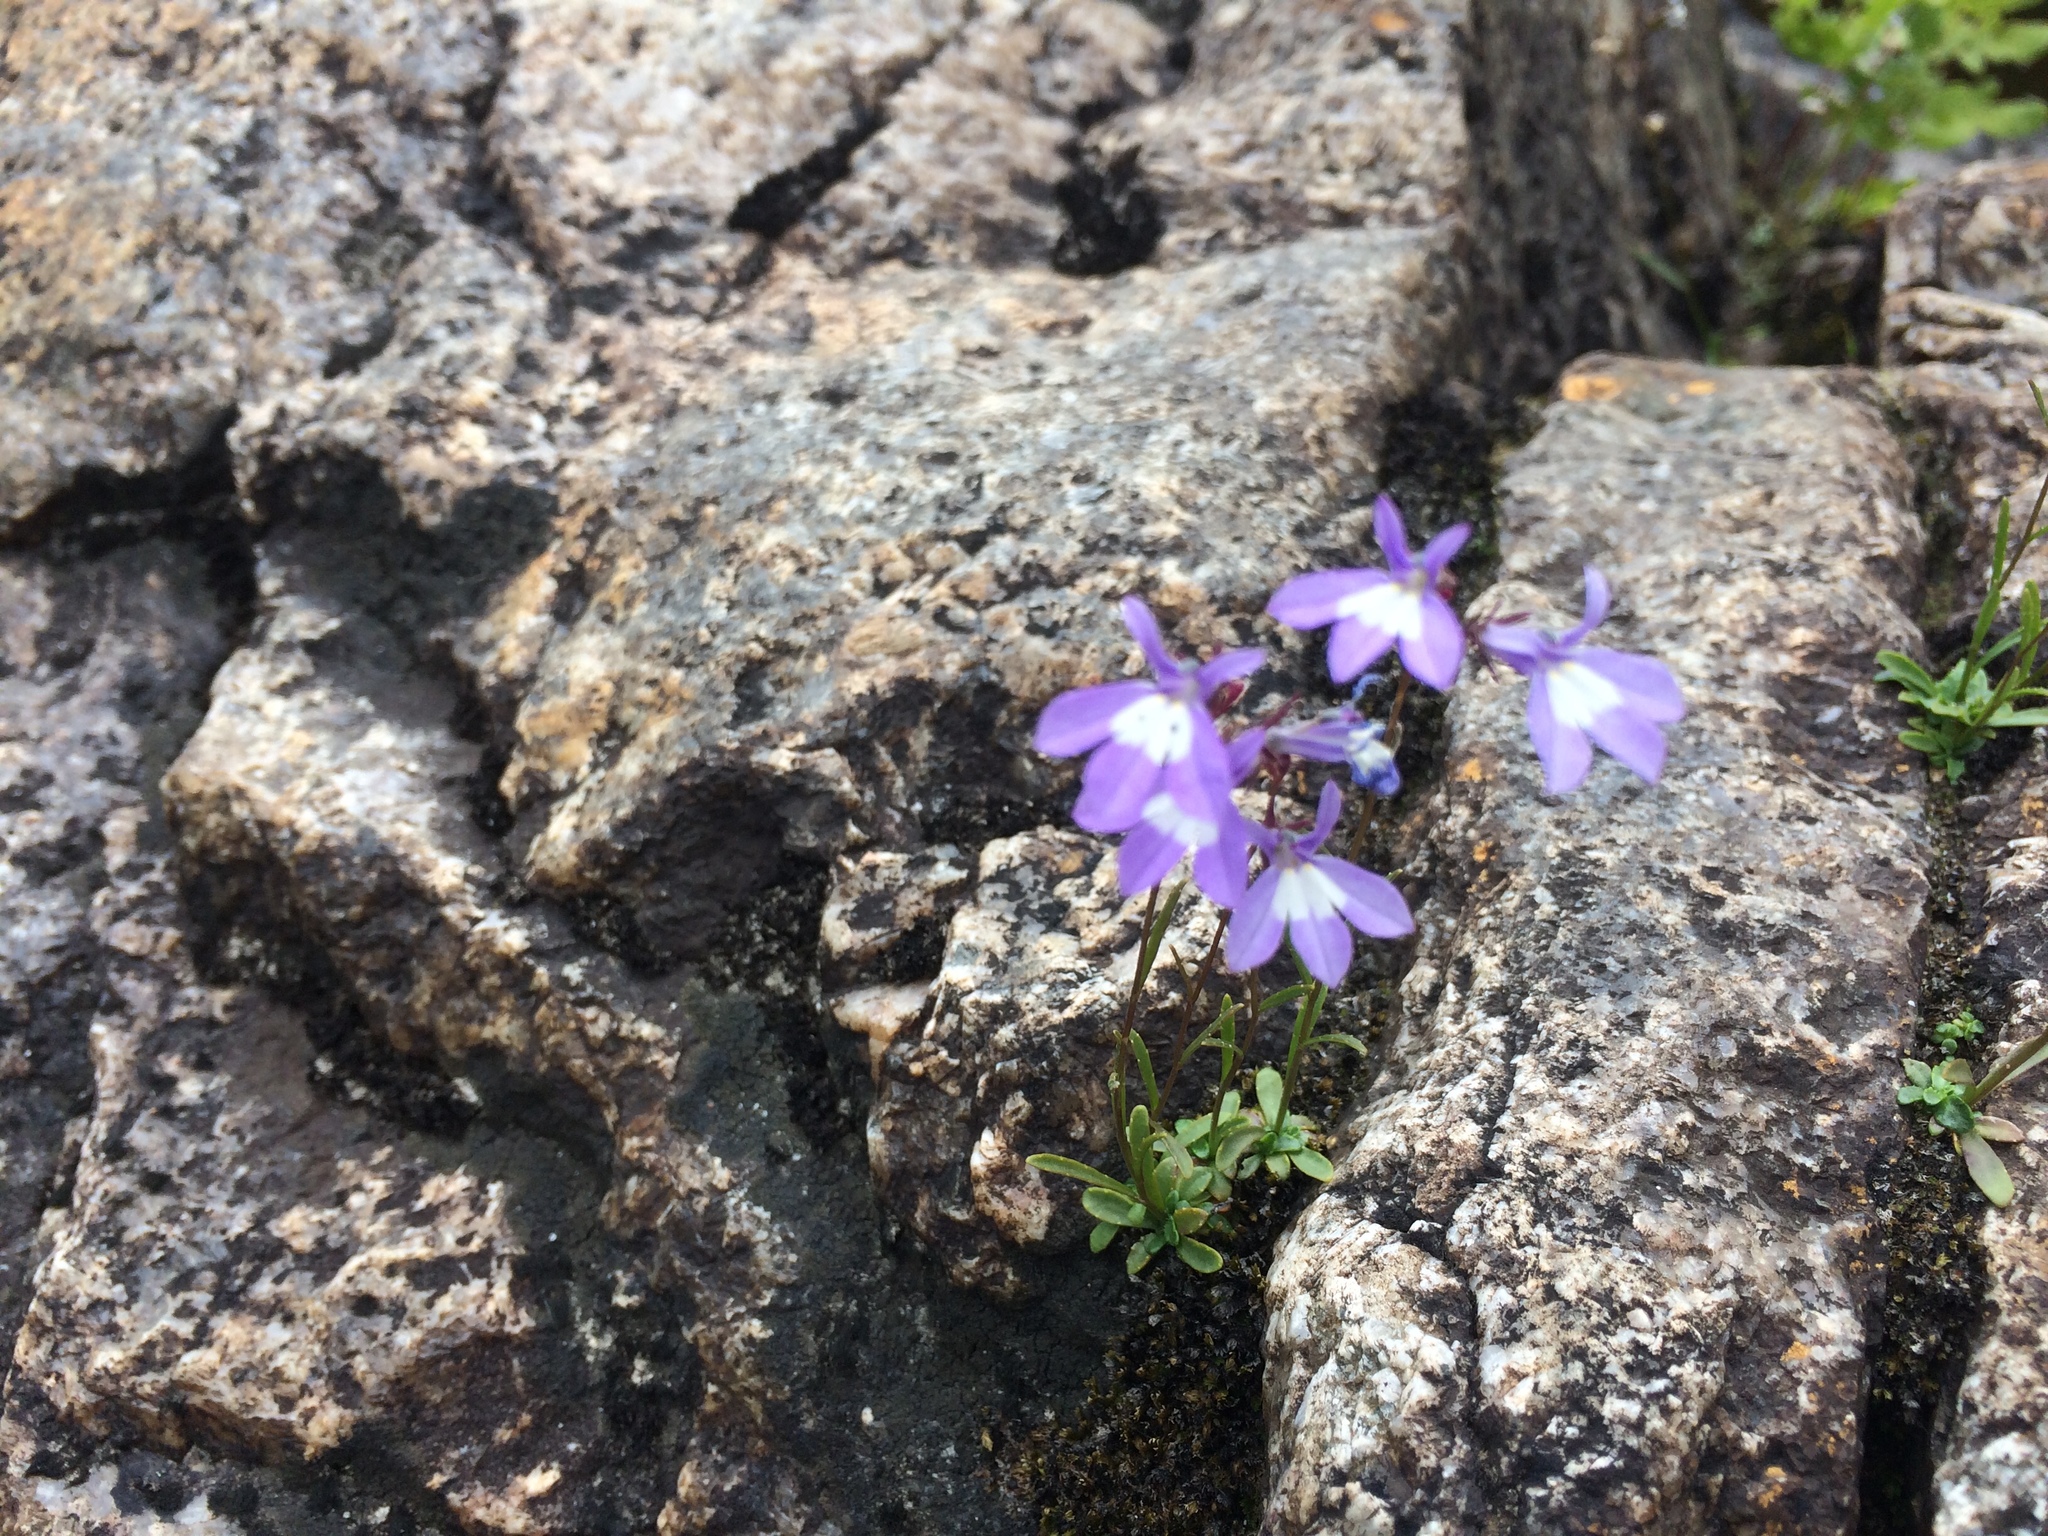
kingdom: Plantae
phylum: Tracheophyta
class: Magnoliopsida
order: Asterales
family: Campanulaceae
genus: Lobelia
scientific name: Lobelia kalmii
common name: Kalm's lobelia
